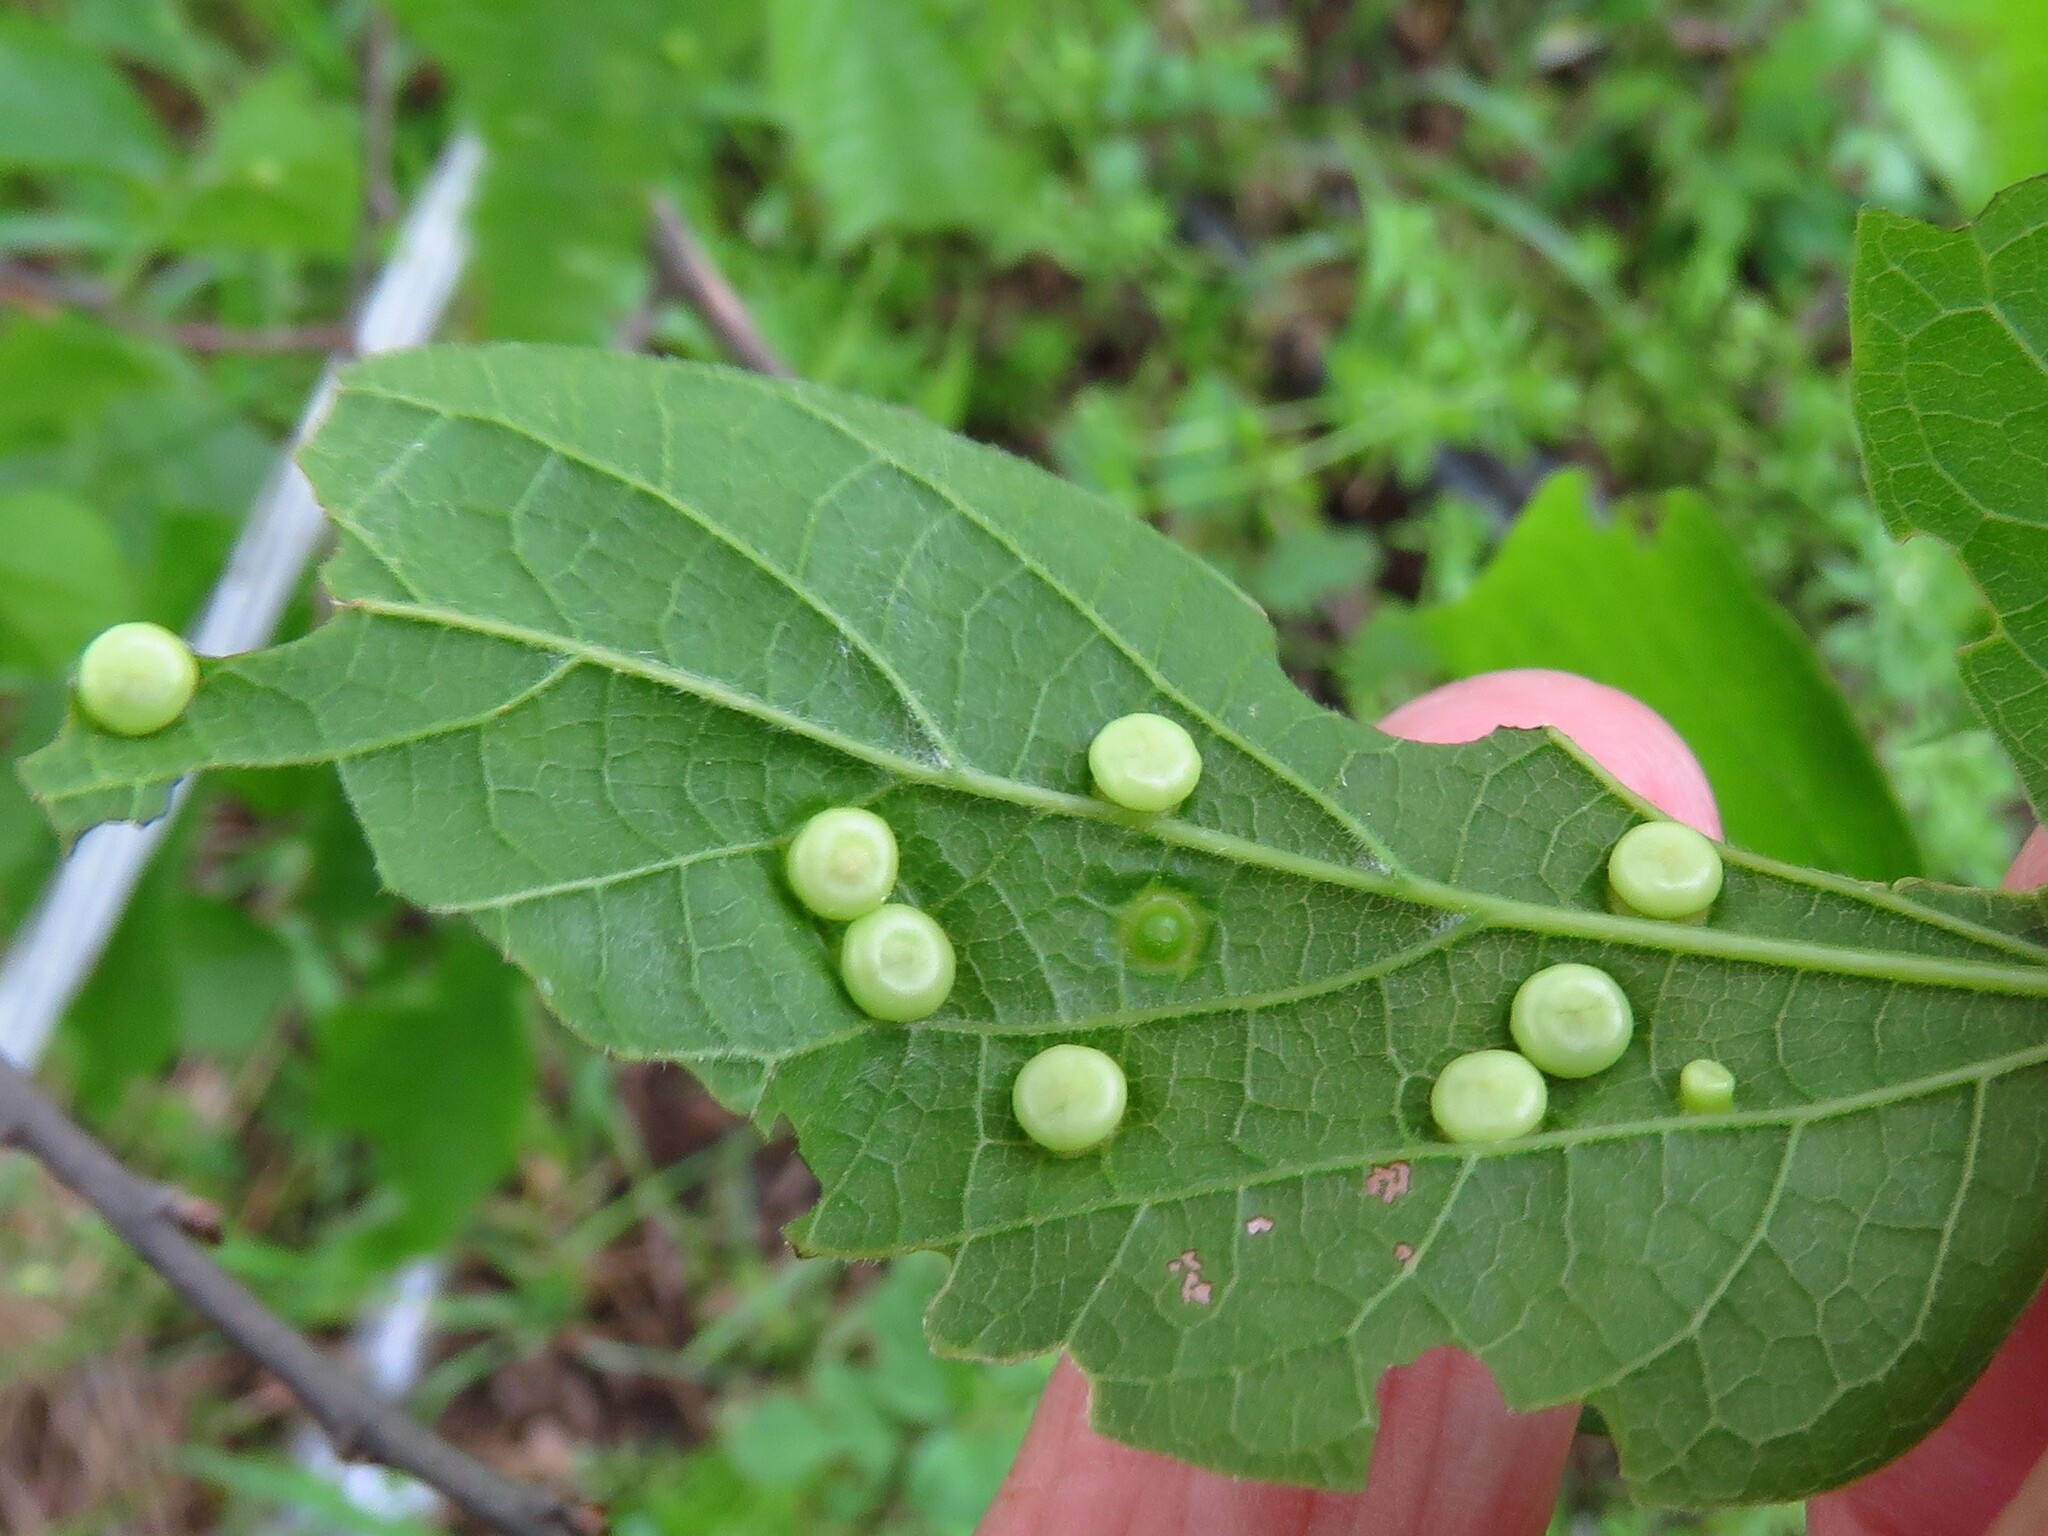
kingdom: Animalia
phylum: Arthropoda
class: Insecta
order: Hemiptera
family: Aphalaridae
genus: Pachypsylla
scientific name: Pachypsylla celtidismamma
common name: Hackberry nipplegall psyllid
